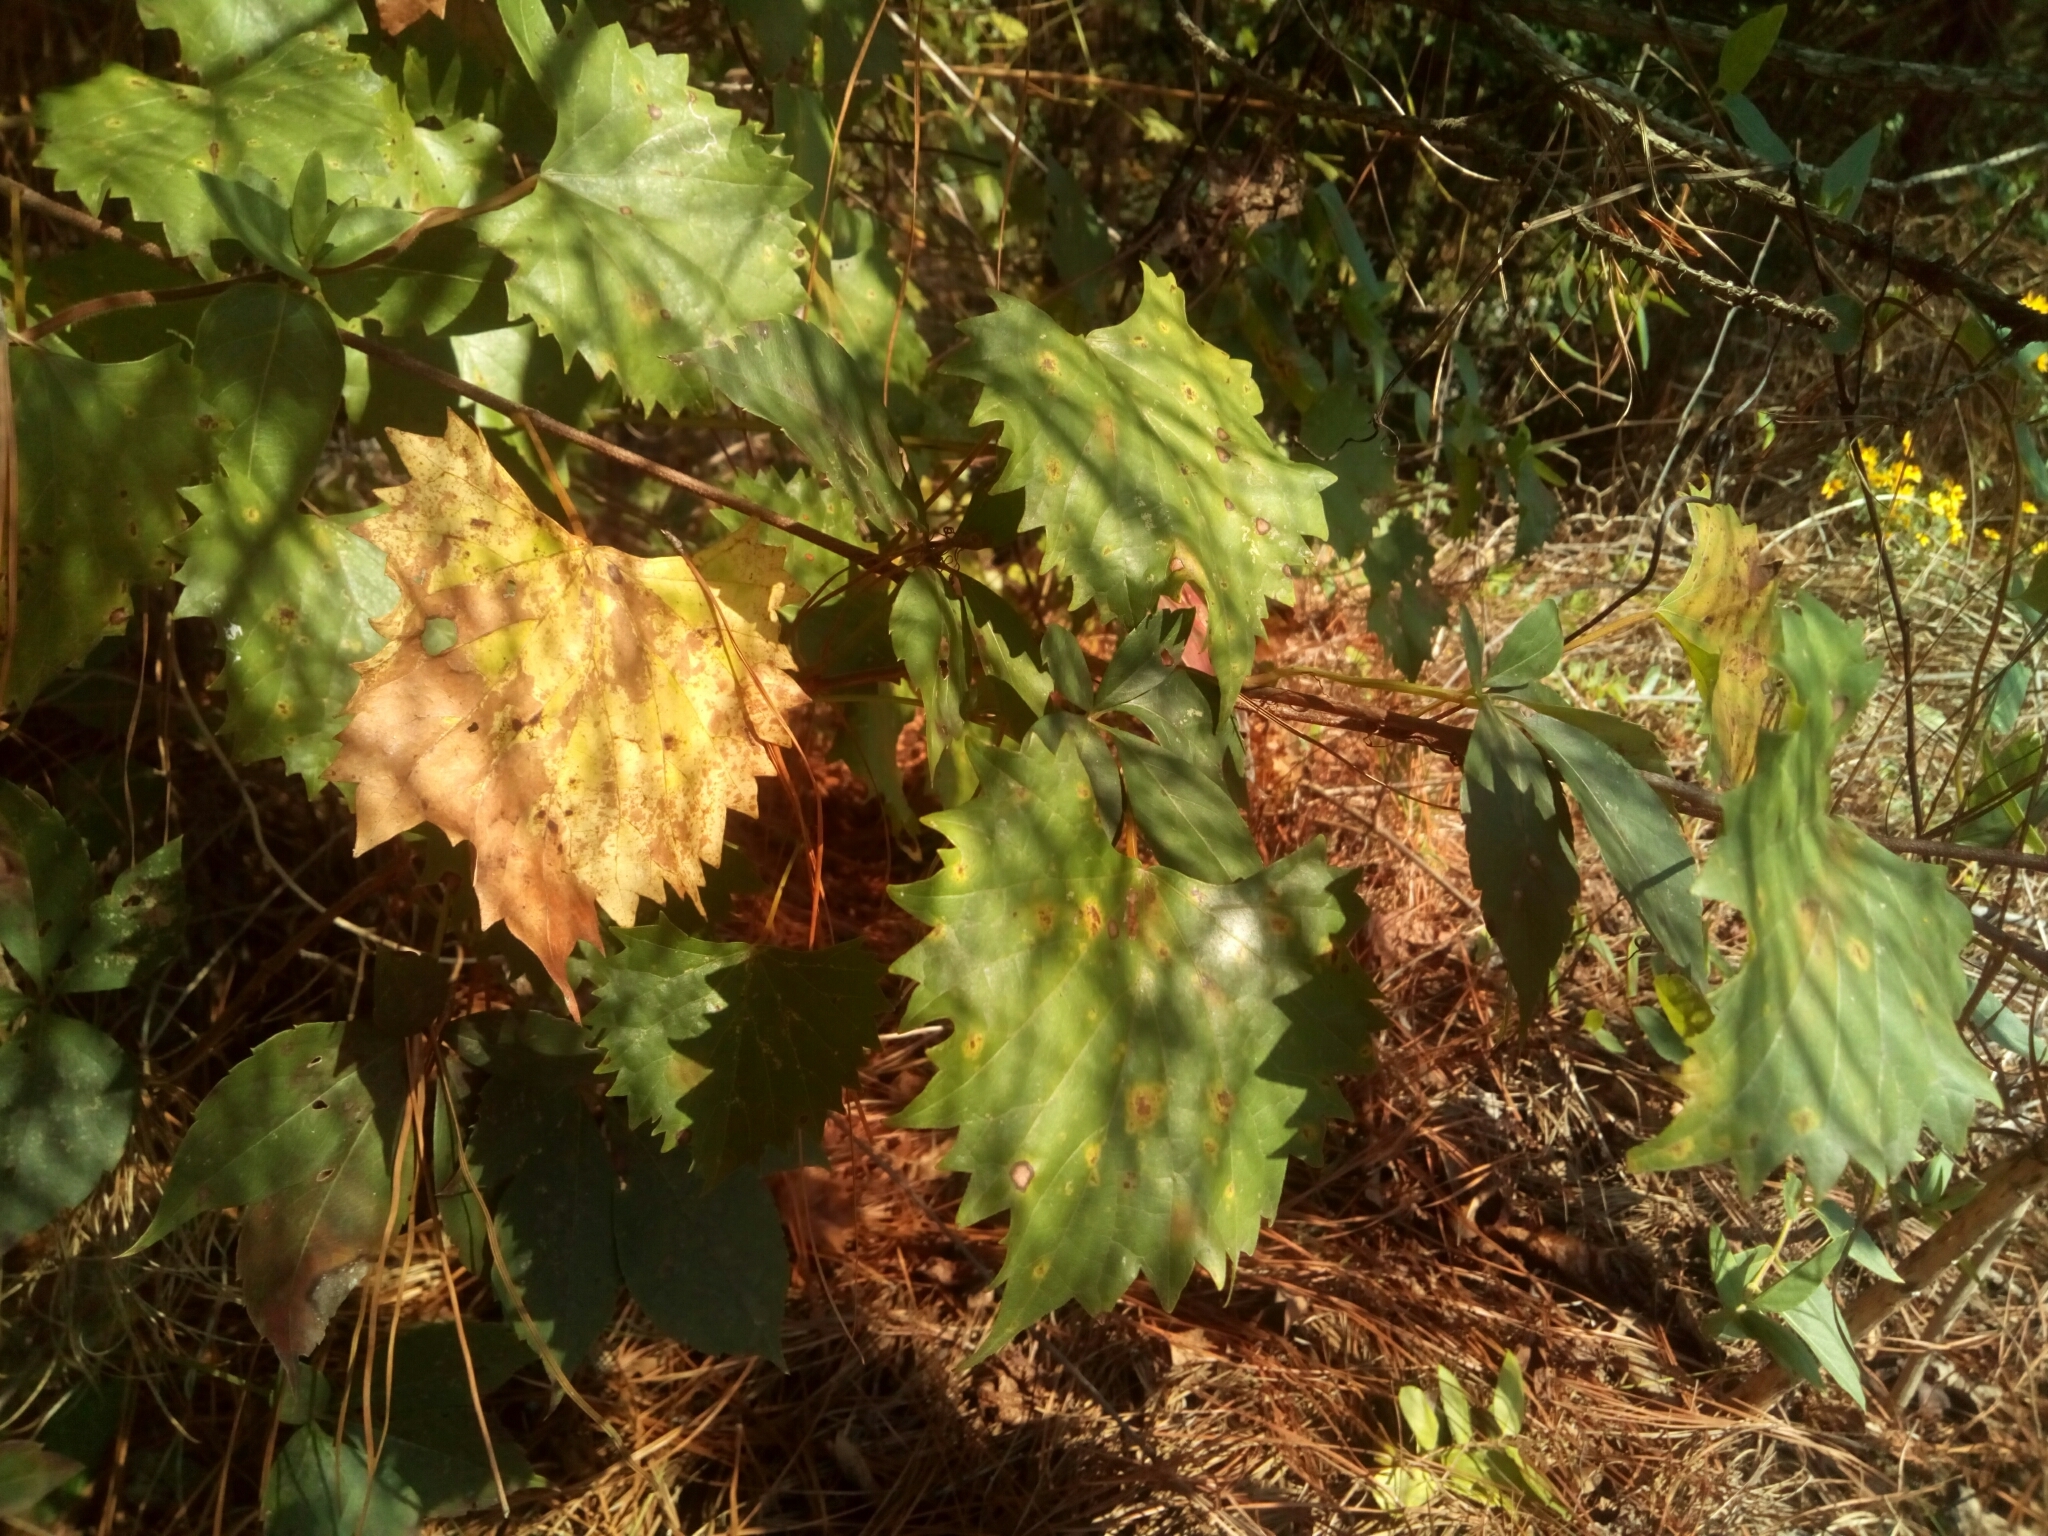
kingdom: Plantae
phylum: Tracheophyta
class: Magnoliopsida
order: Vitales
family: Vitaceae
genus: Vitis
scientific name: Vitis rotundifolia
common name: Muscadine grape
